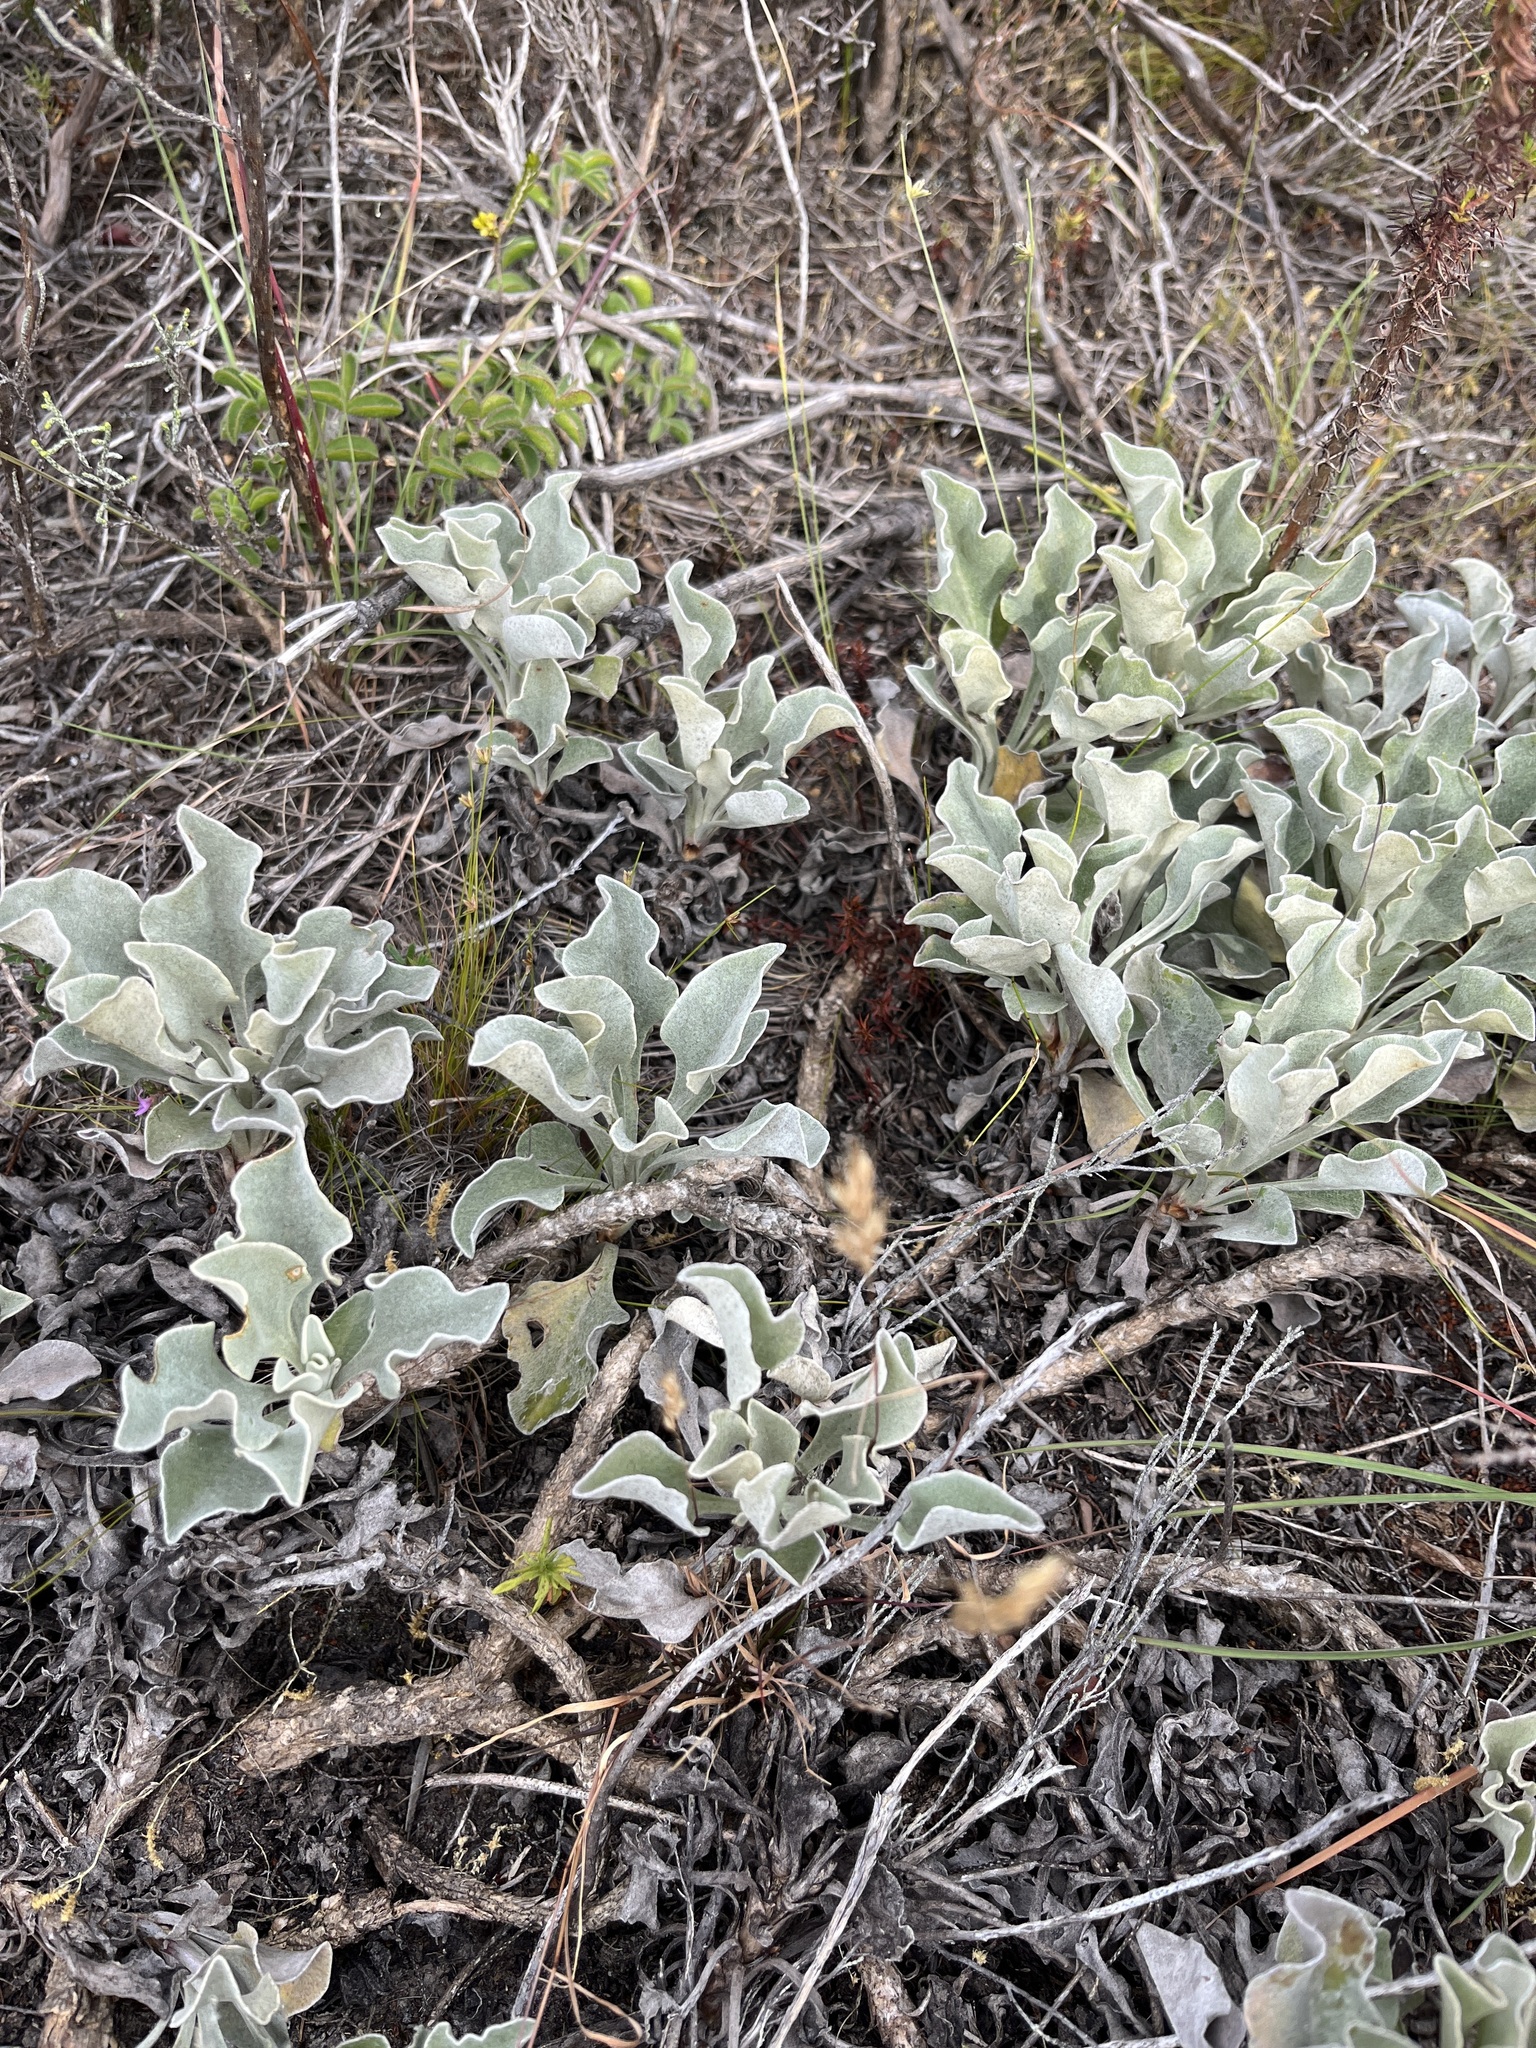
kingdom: Plantae
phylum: Tracheophyta
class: Magnoliopsida
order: Asterales
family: Asteraceae
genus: Osteospermum
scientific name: Osteospermum tomentosum
